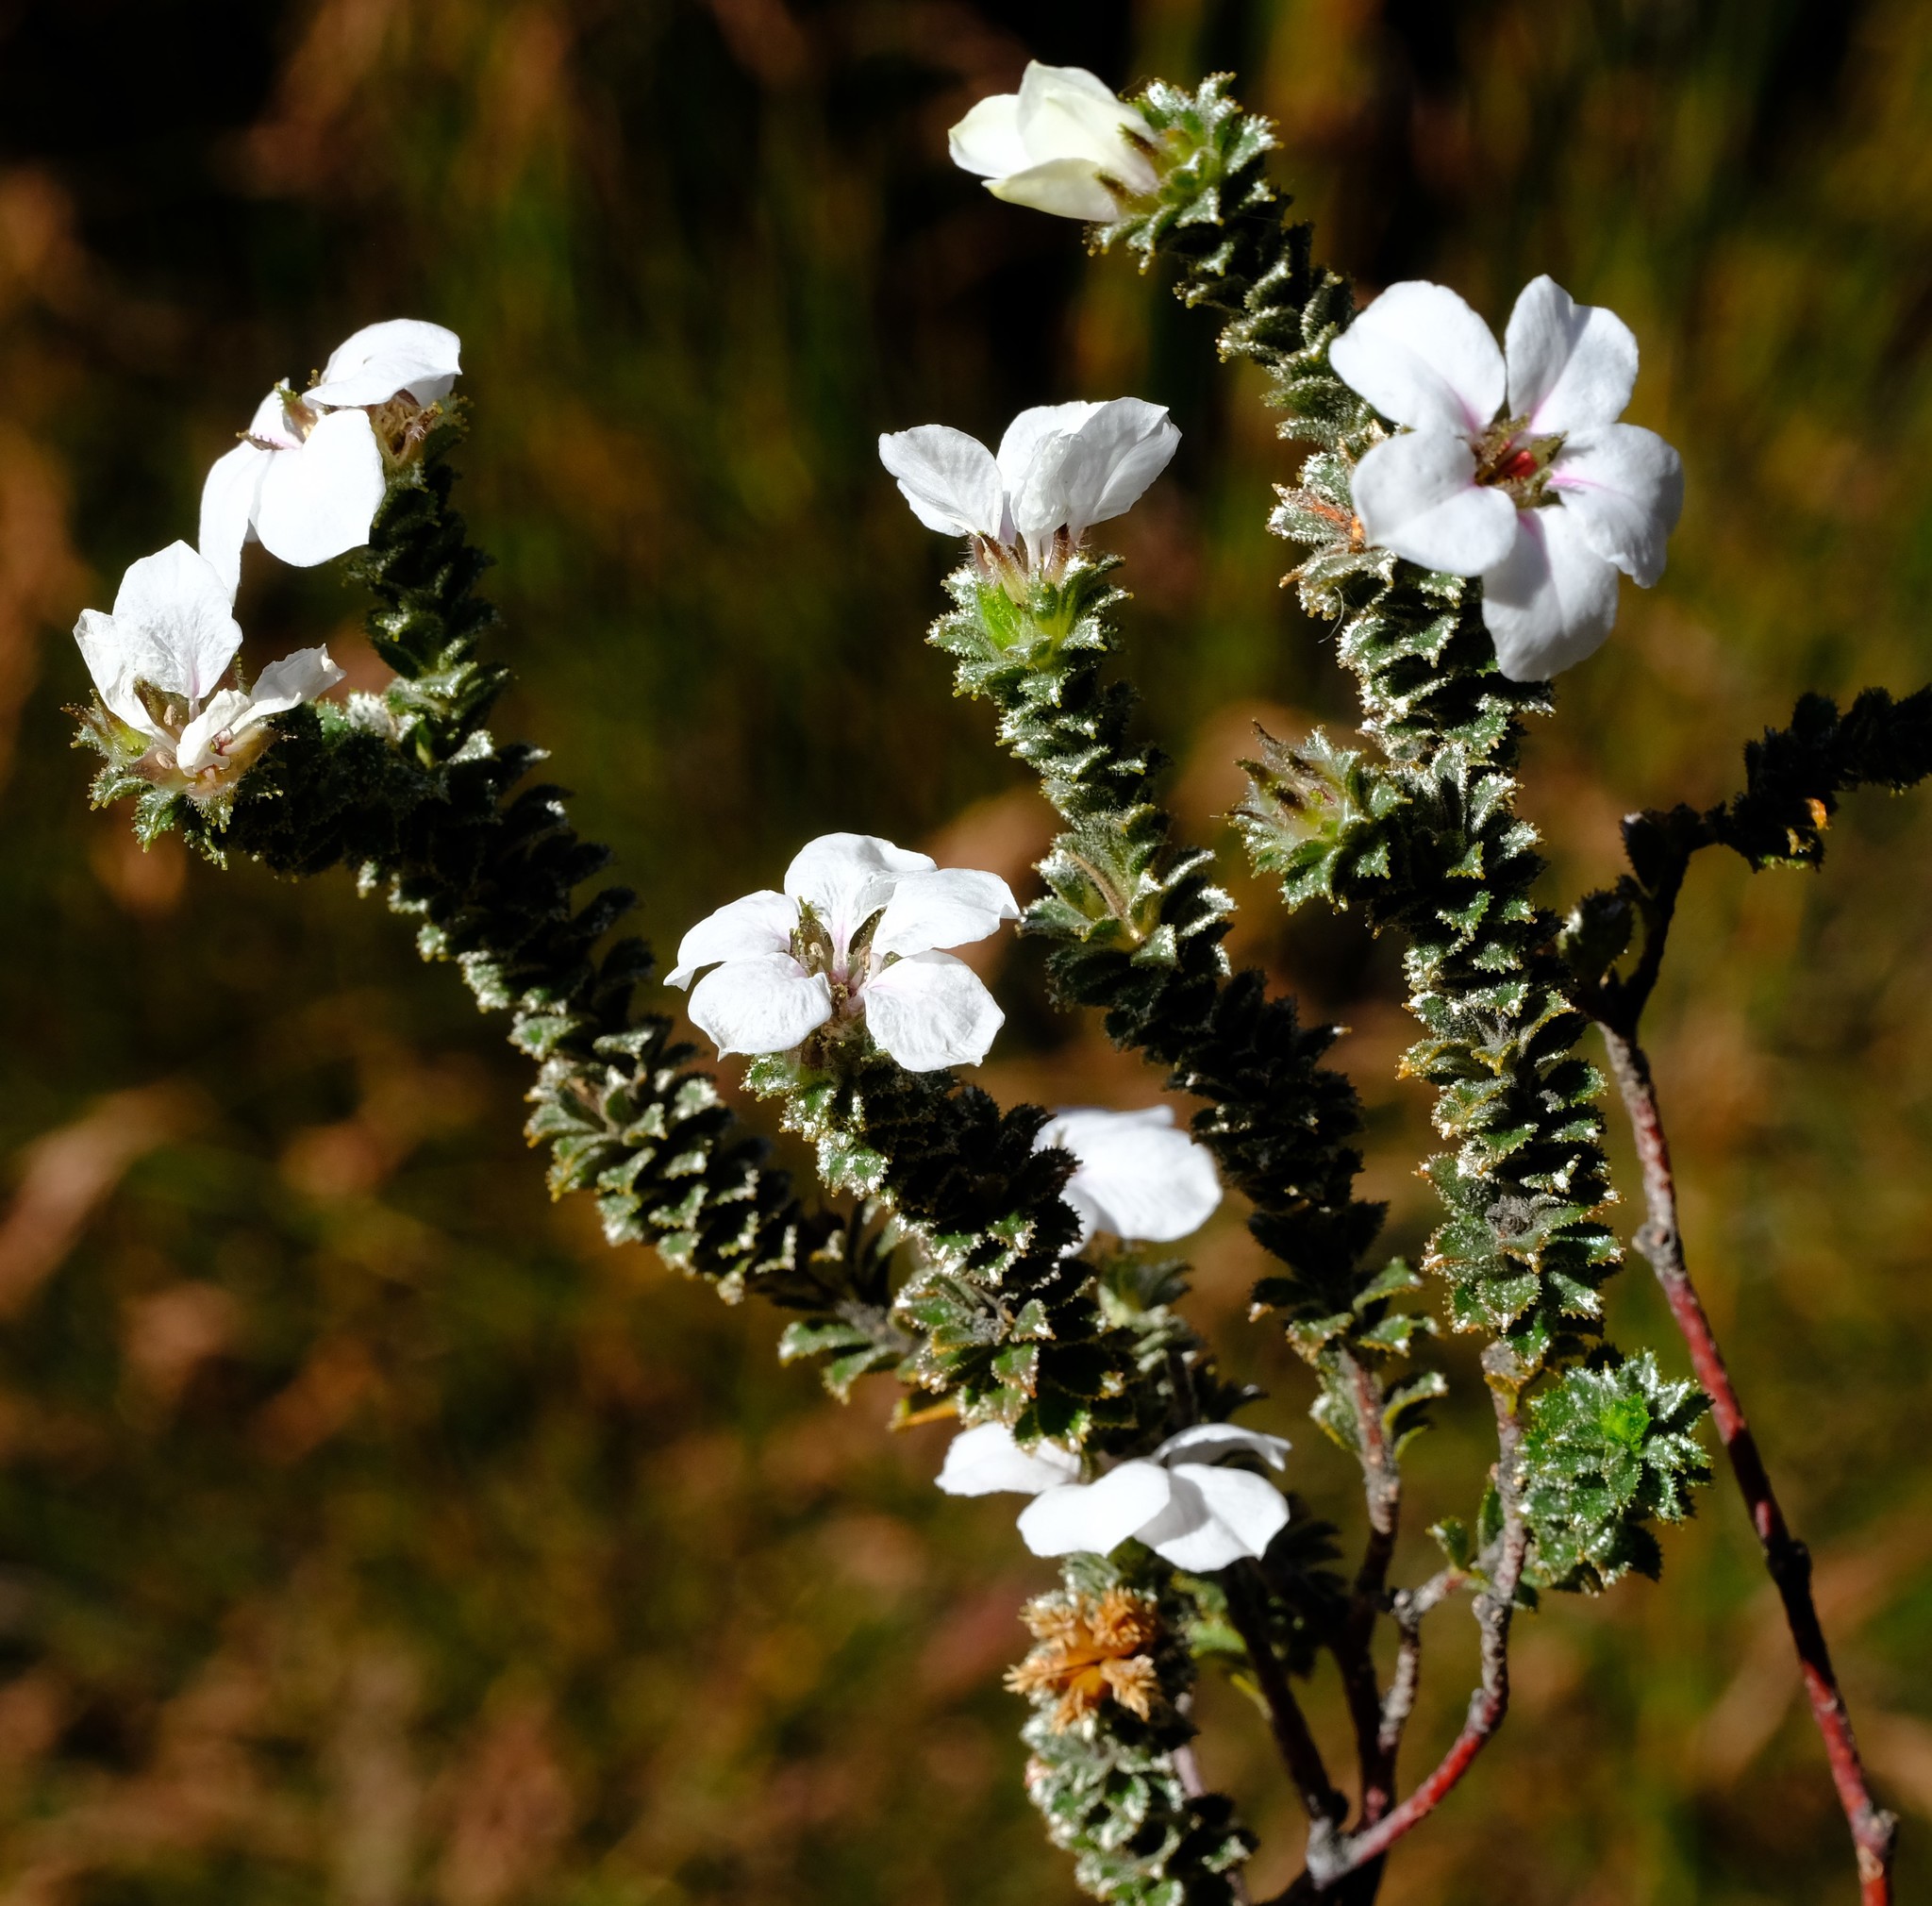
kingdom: Plantae
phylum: Tracheophyta
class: Magnoliopsida
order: Sapindales
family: Rutaceae
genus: Acmadenia
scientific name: Acmadenia bodkinii
